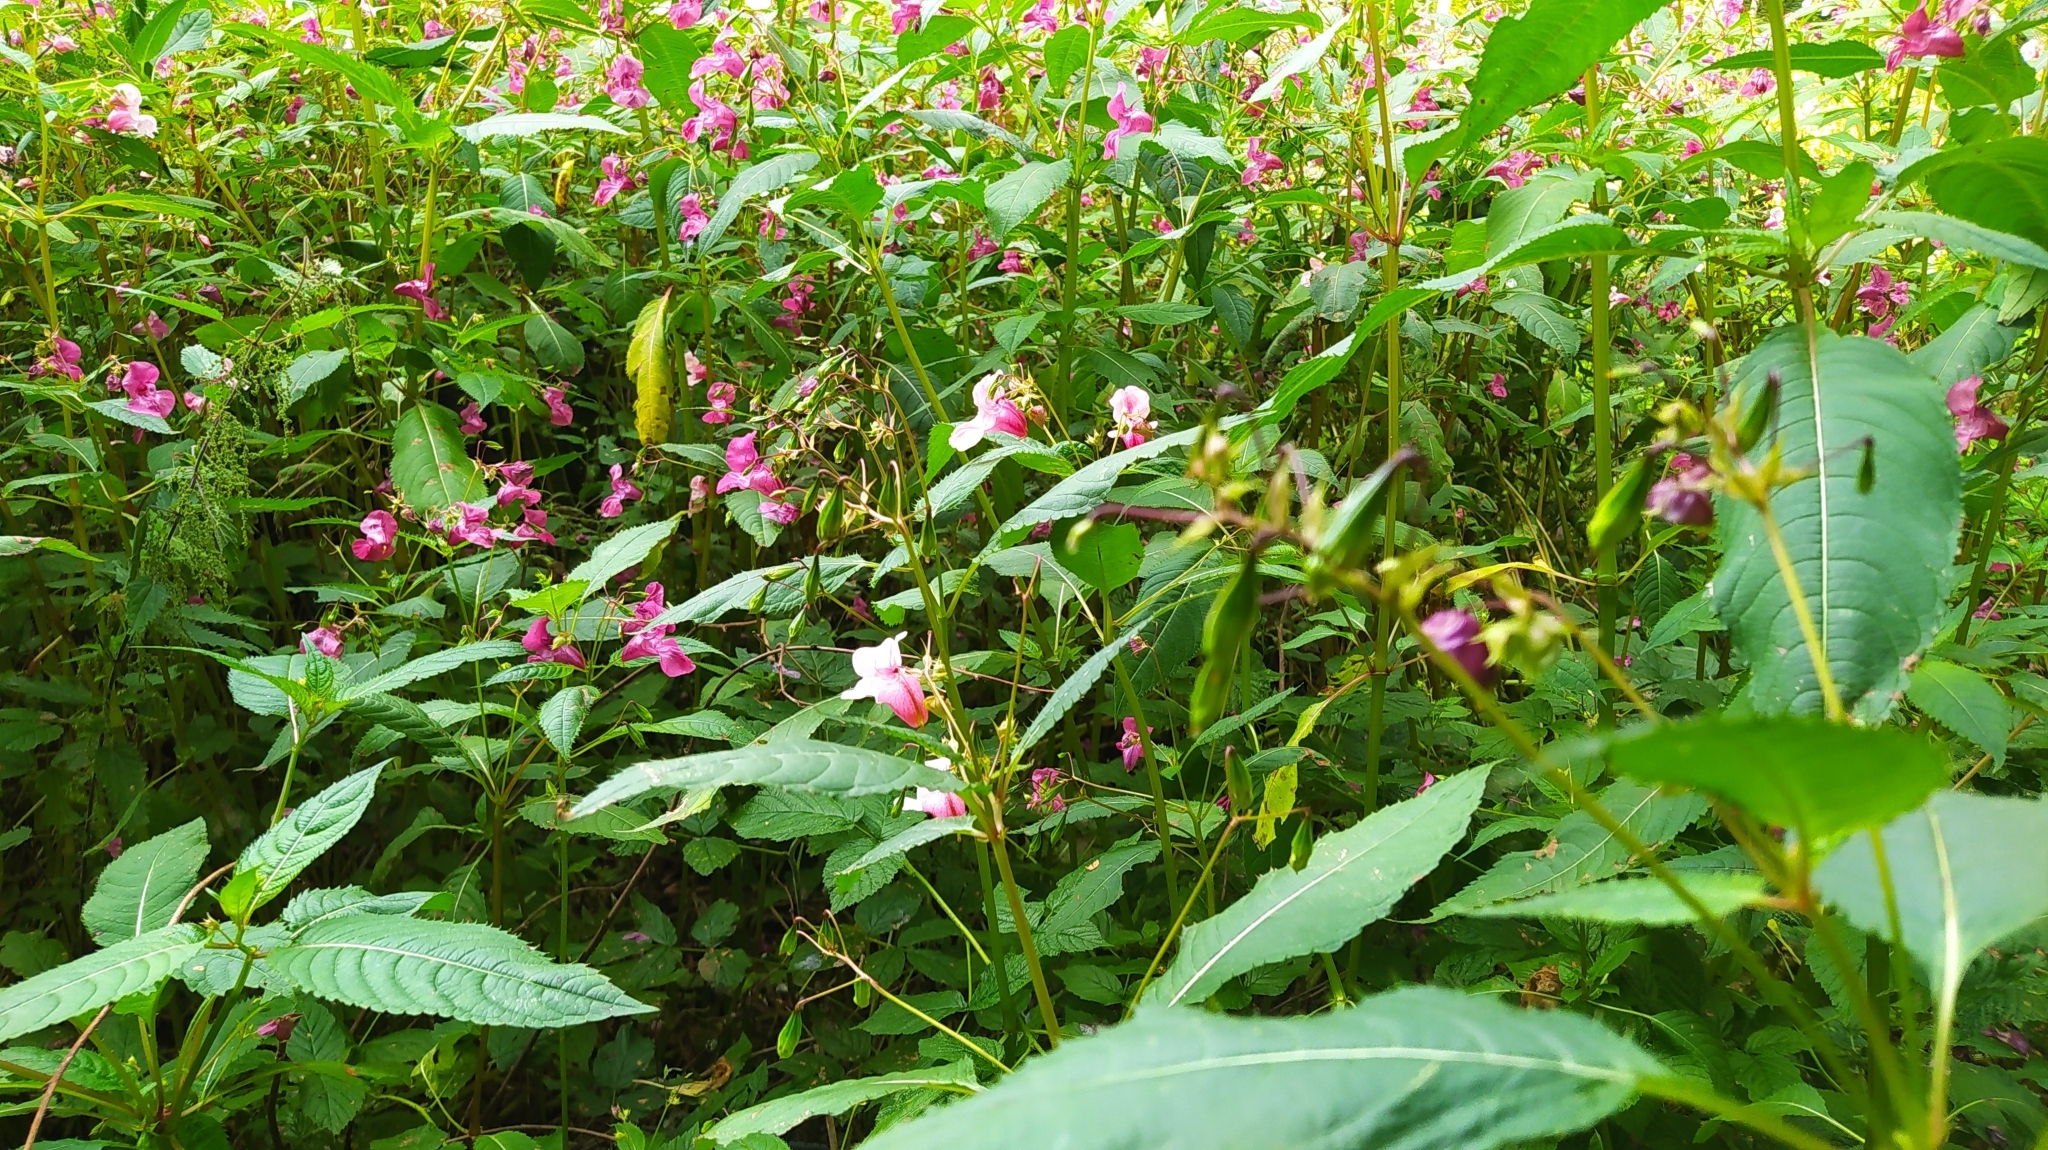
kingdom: Plantae
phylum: Tracheophyta
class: Magnoliopsida
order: Ericales
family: Balsaminaceae
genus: Impatiens
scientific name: Impatiens glandulifera
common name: Himalayan balsam
